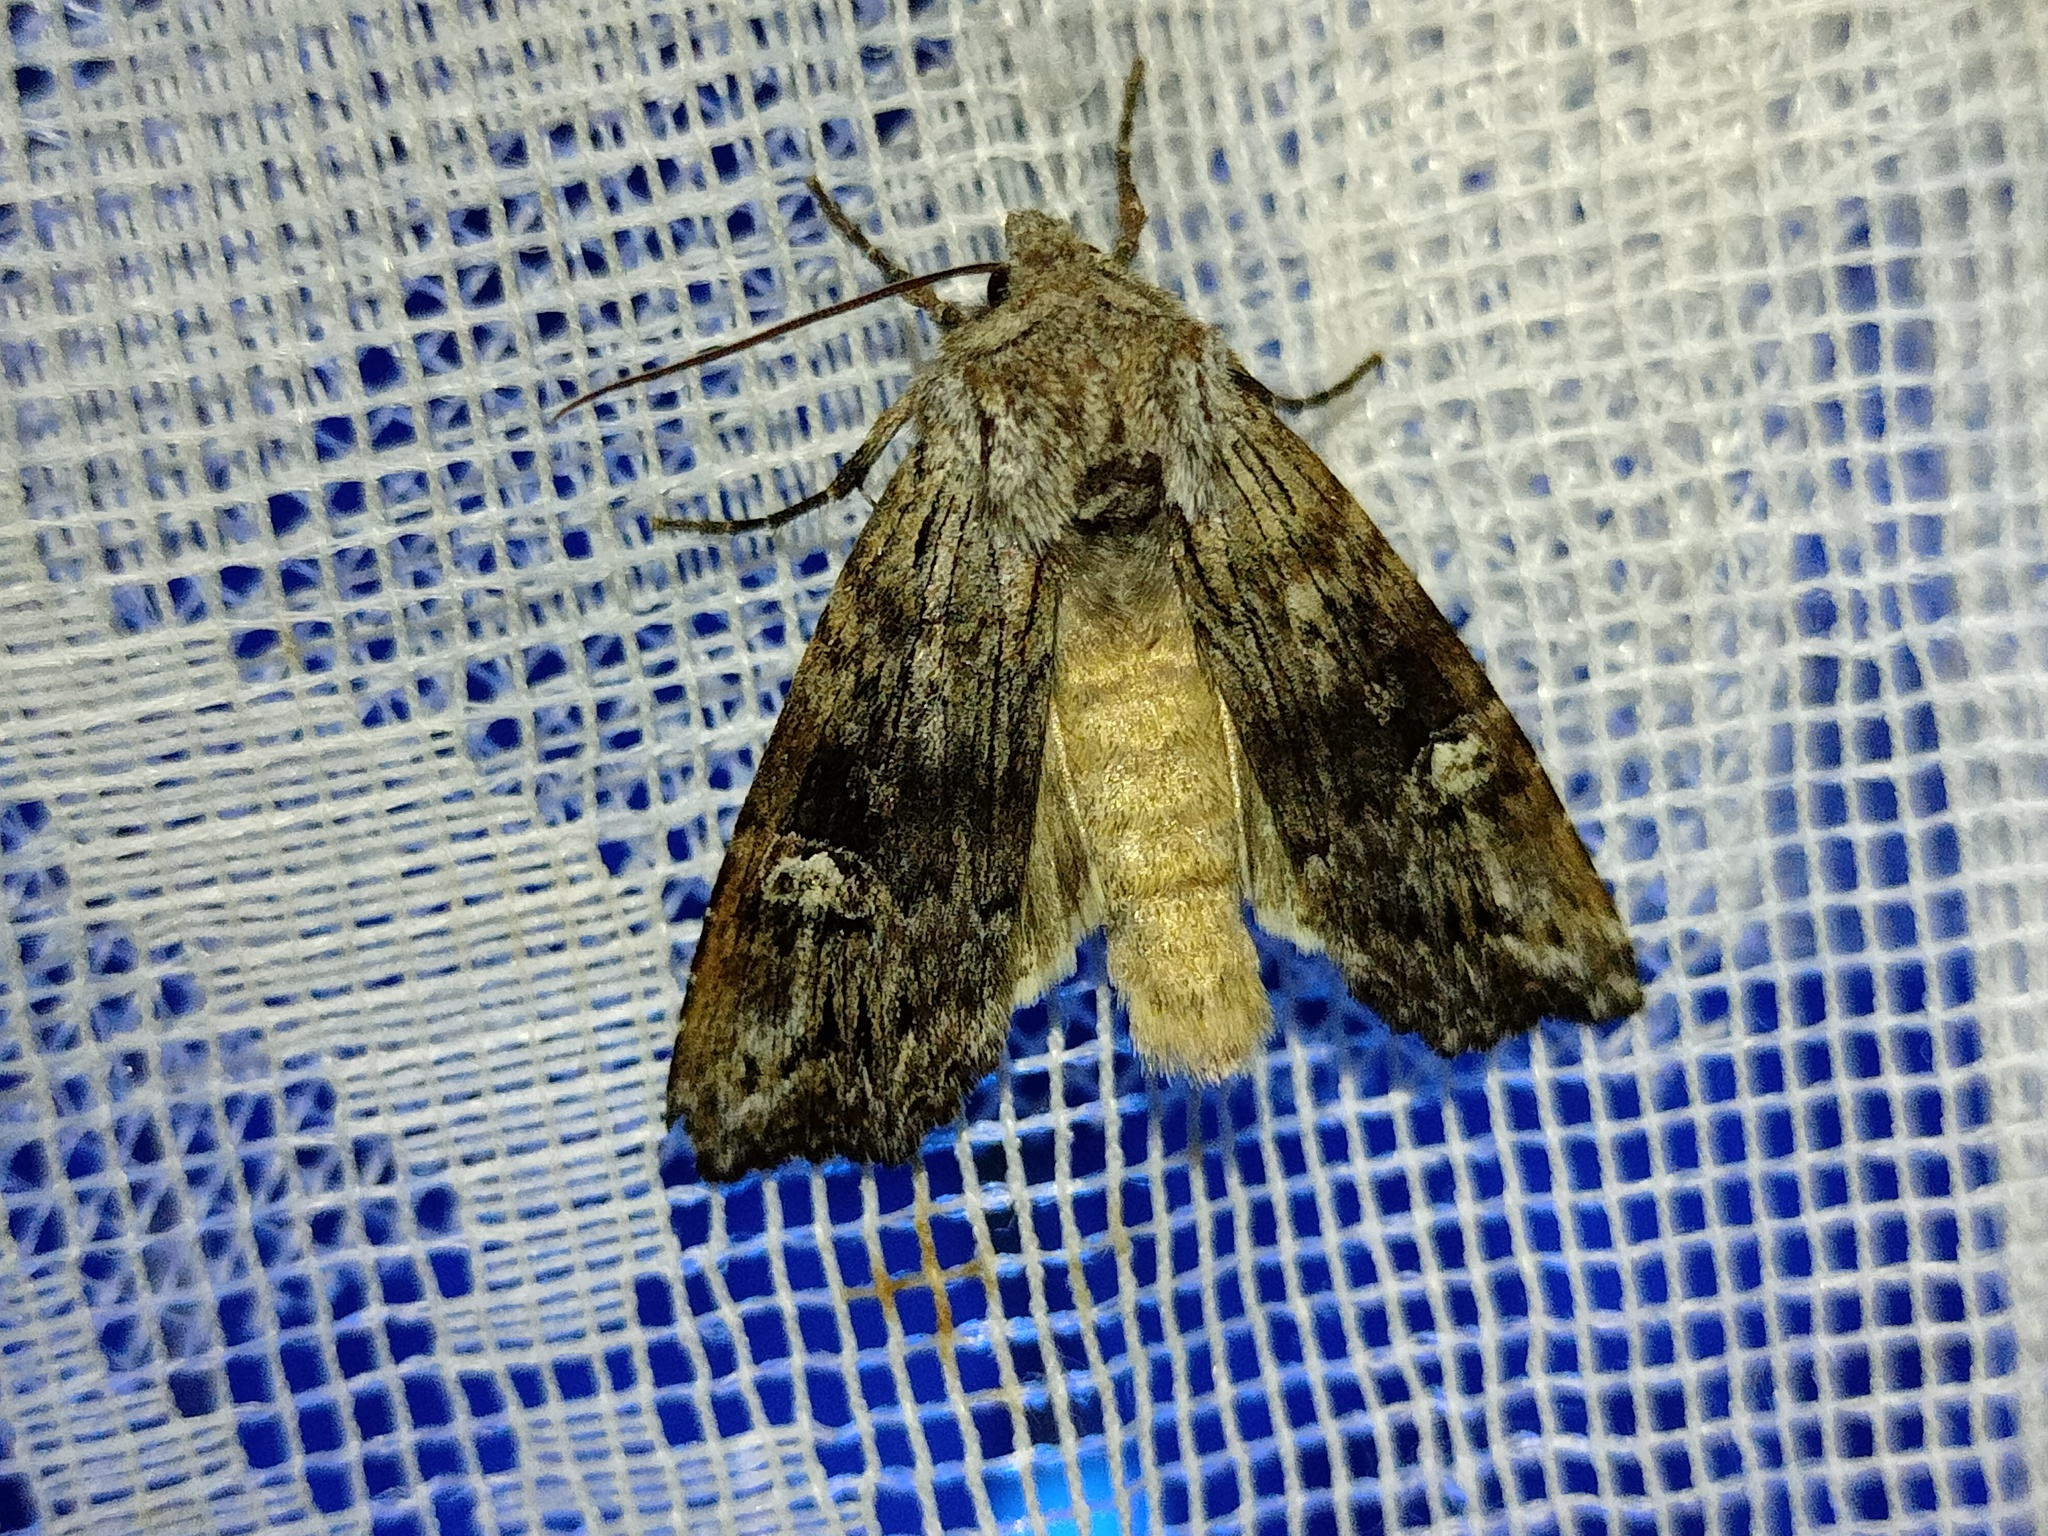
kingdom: Animalia
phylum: Arthropoda
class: Insecta
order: Lepidoptera
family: Noctuidae
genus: Xylena
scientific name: Xylena solidaginis
